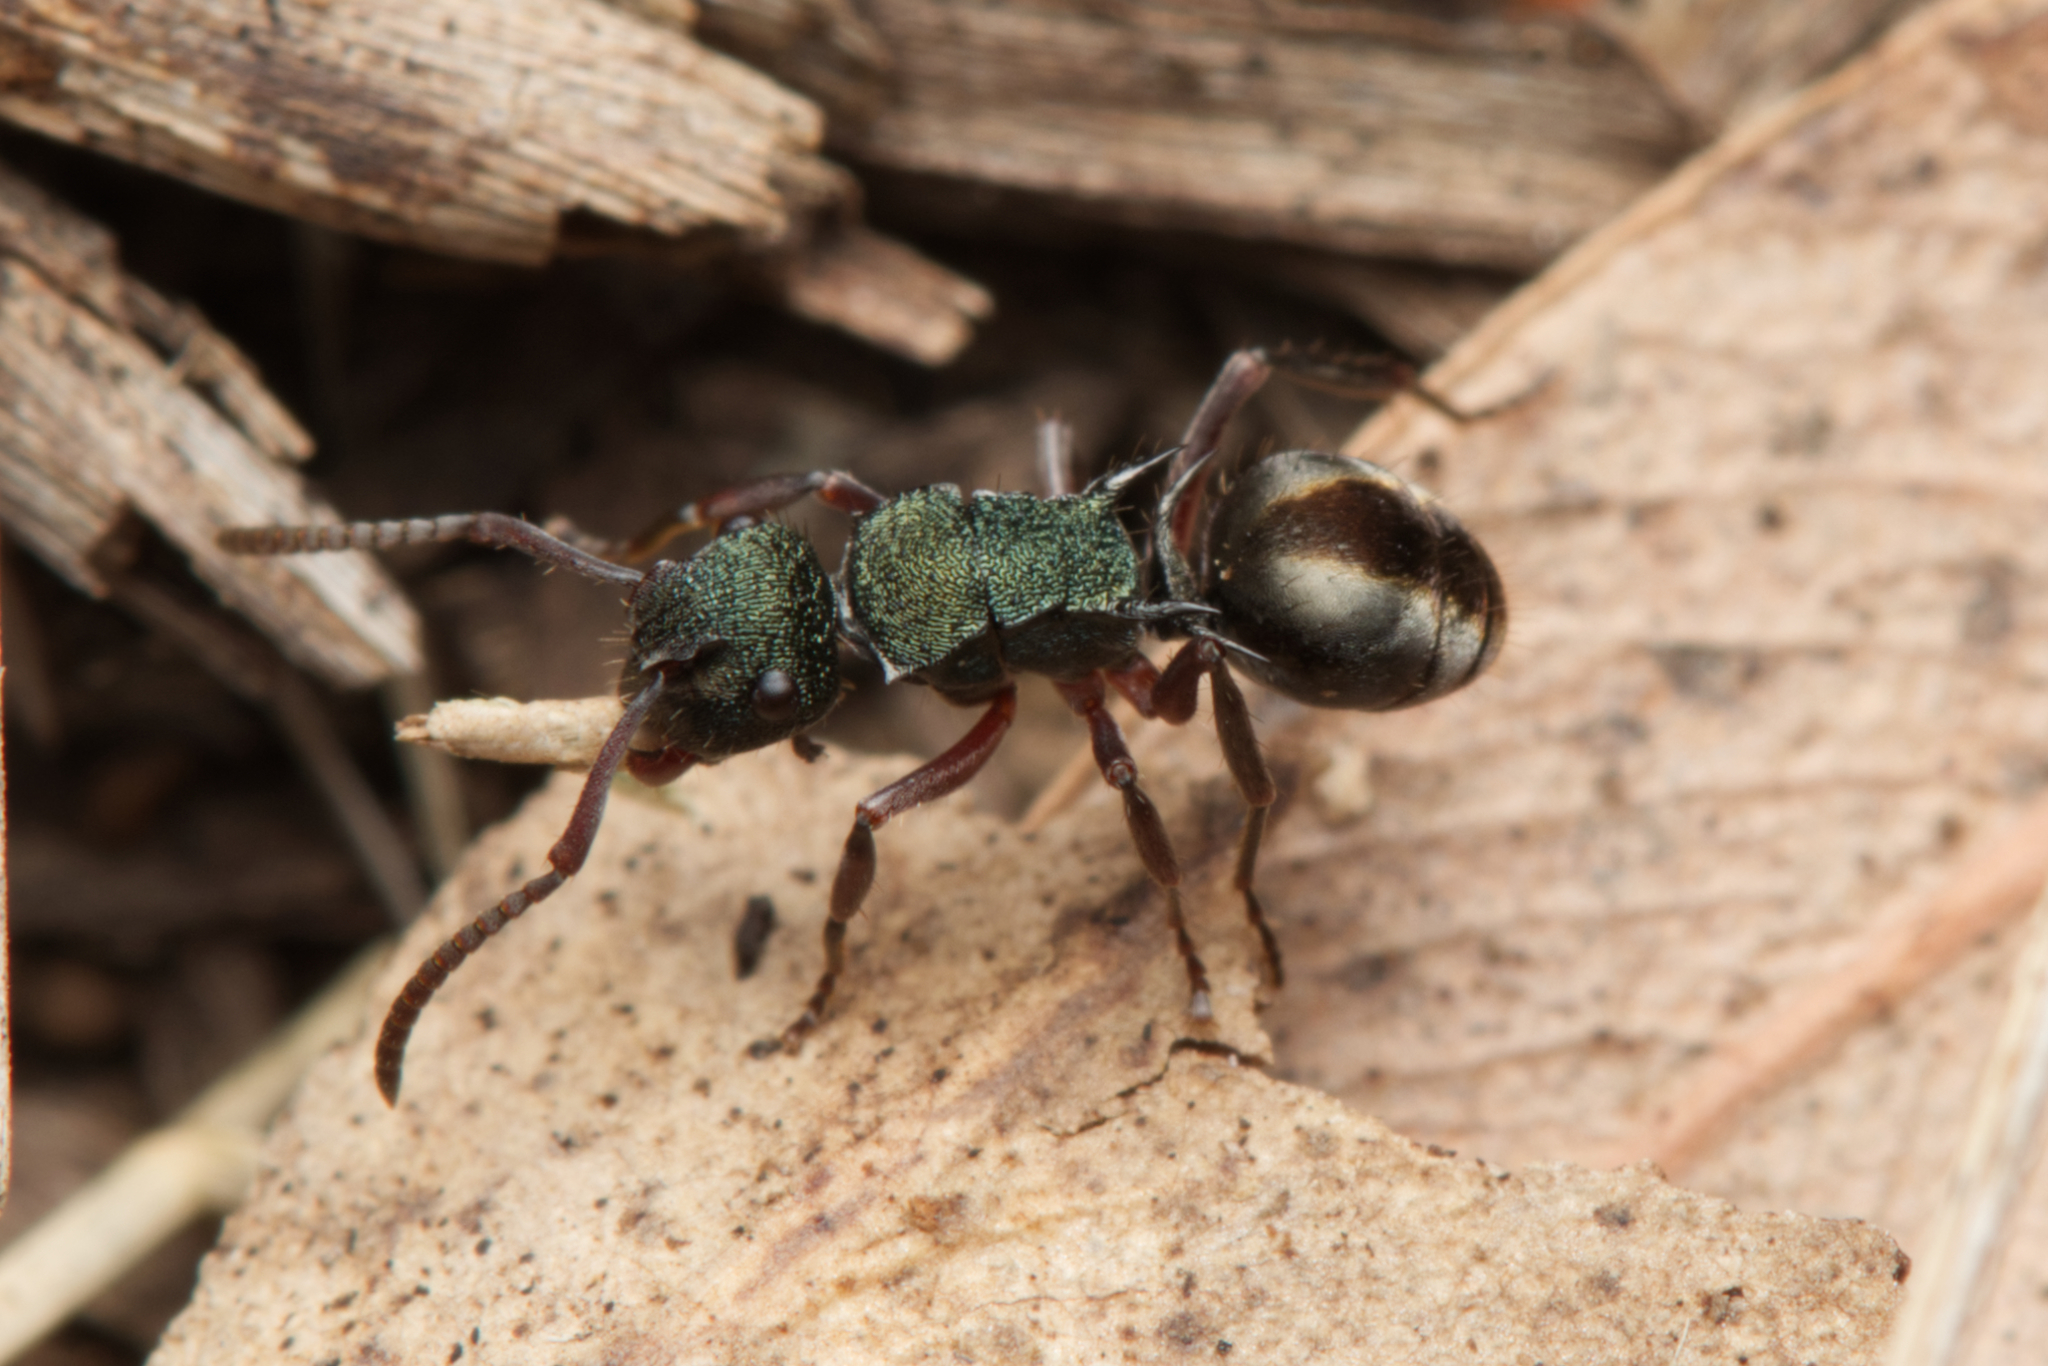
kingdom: Animalia
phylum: Arthropoda
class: Insecta
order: Hymenoptera
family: Formicidae
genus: Polyrhachis
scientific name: Polyrhachis hookeri
